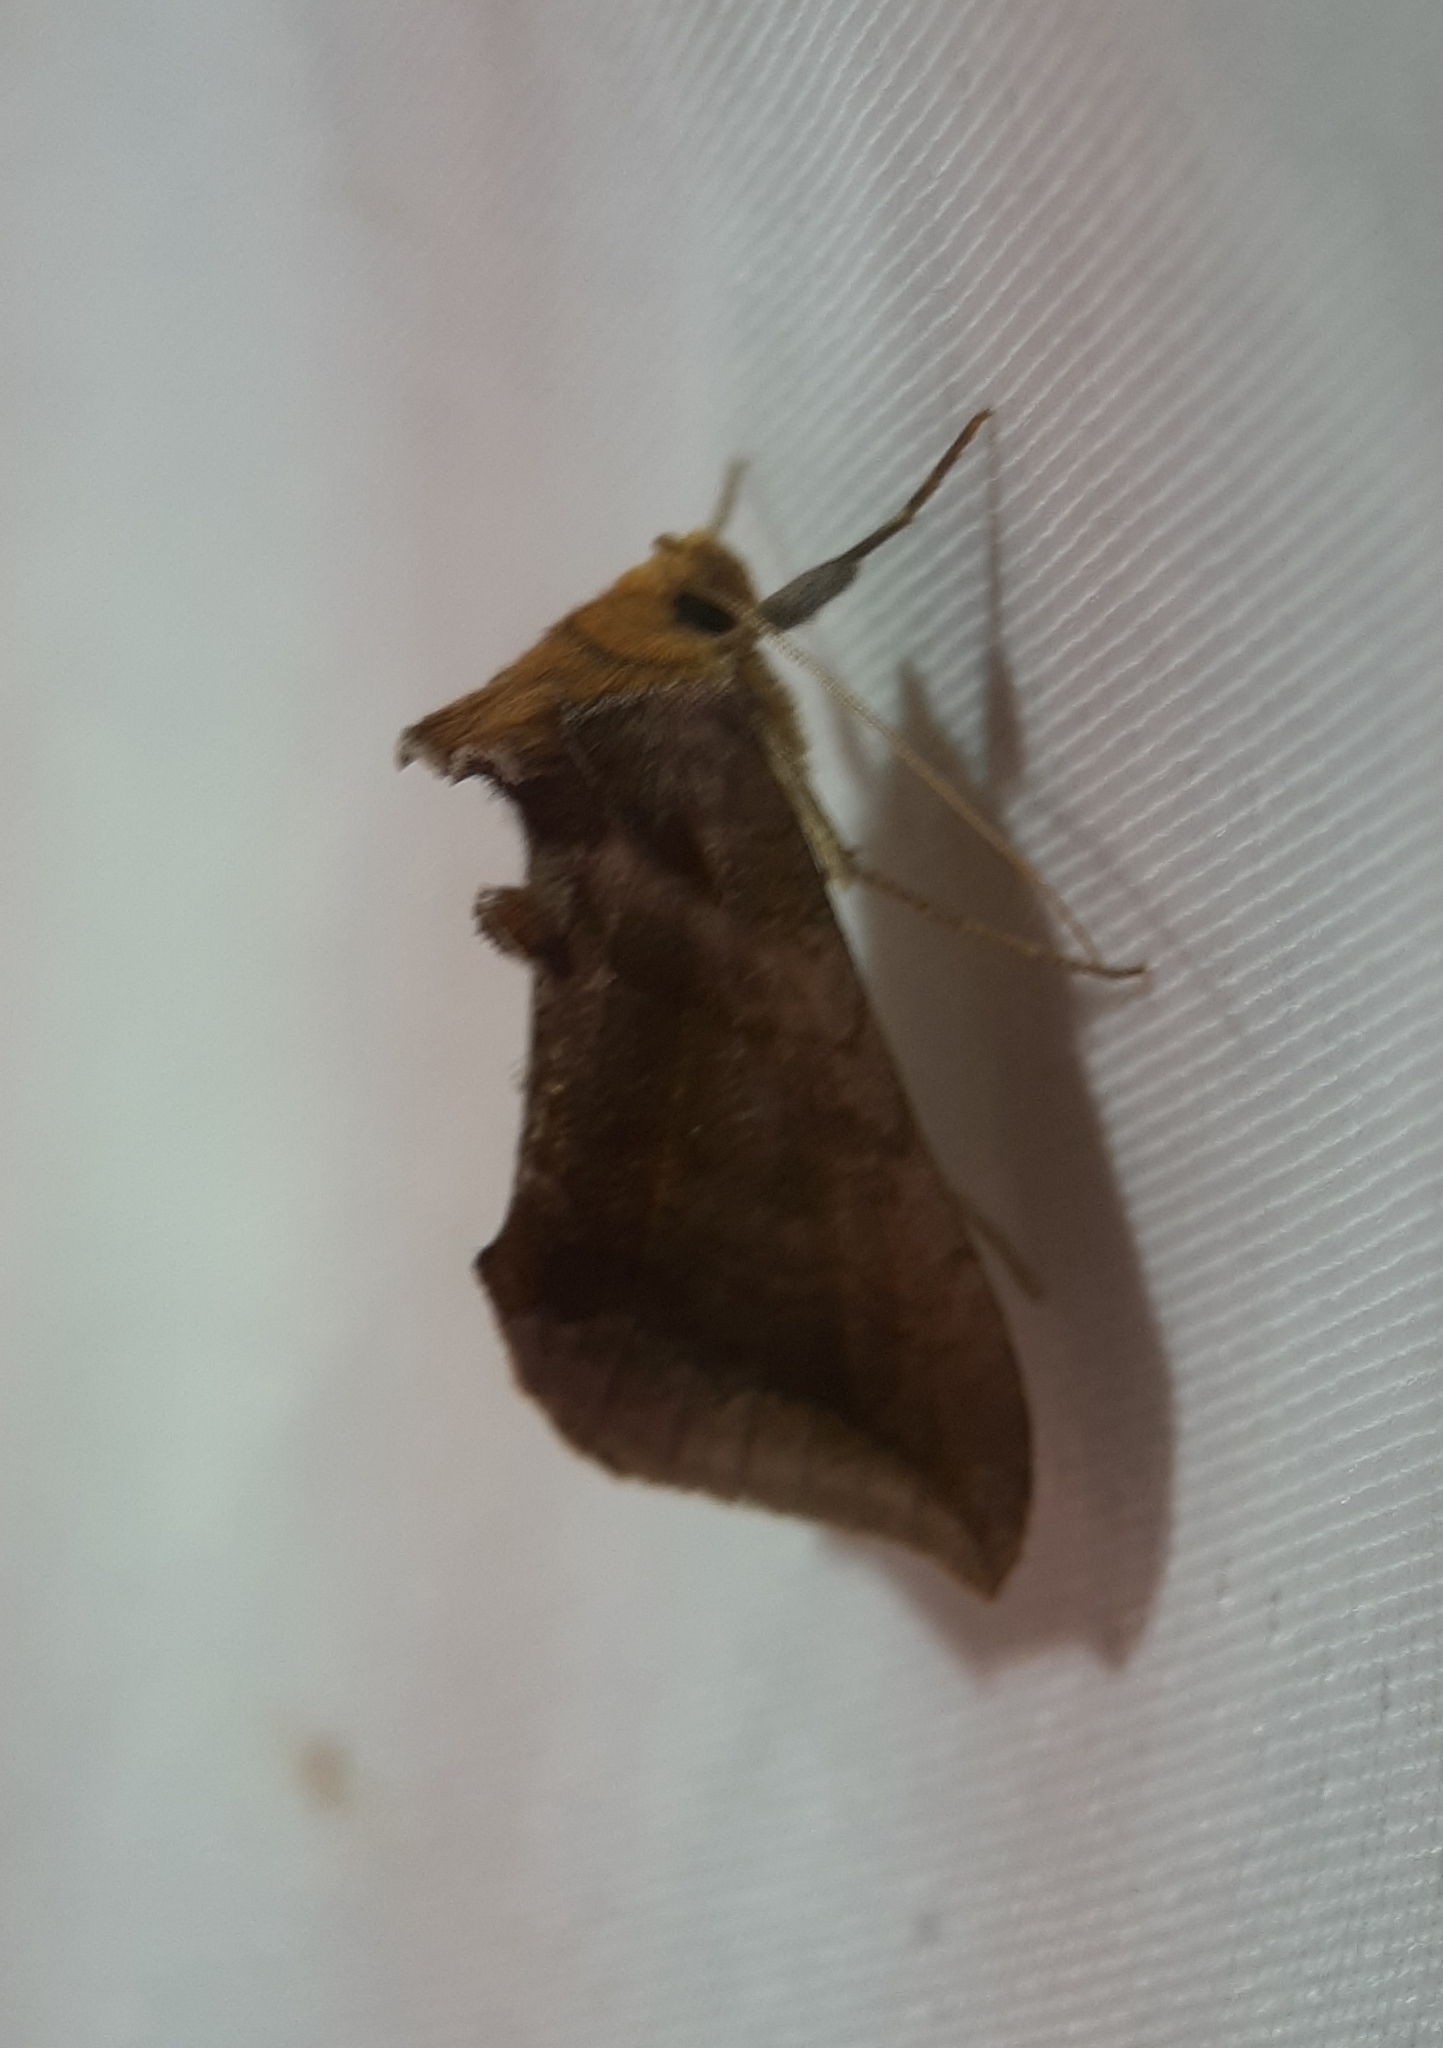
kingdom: Animalia
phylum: Arthropoda
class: Insecta
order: Lepidoptera
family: Noctuidae
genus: Allagrapha
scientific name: Allagrapha aerea
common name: Unspotted looper moth
